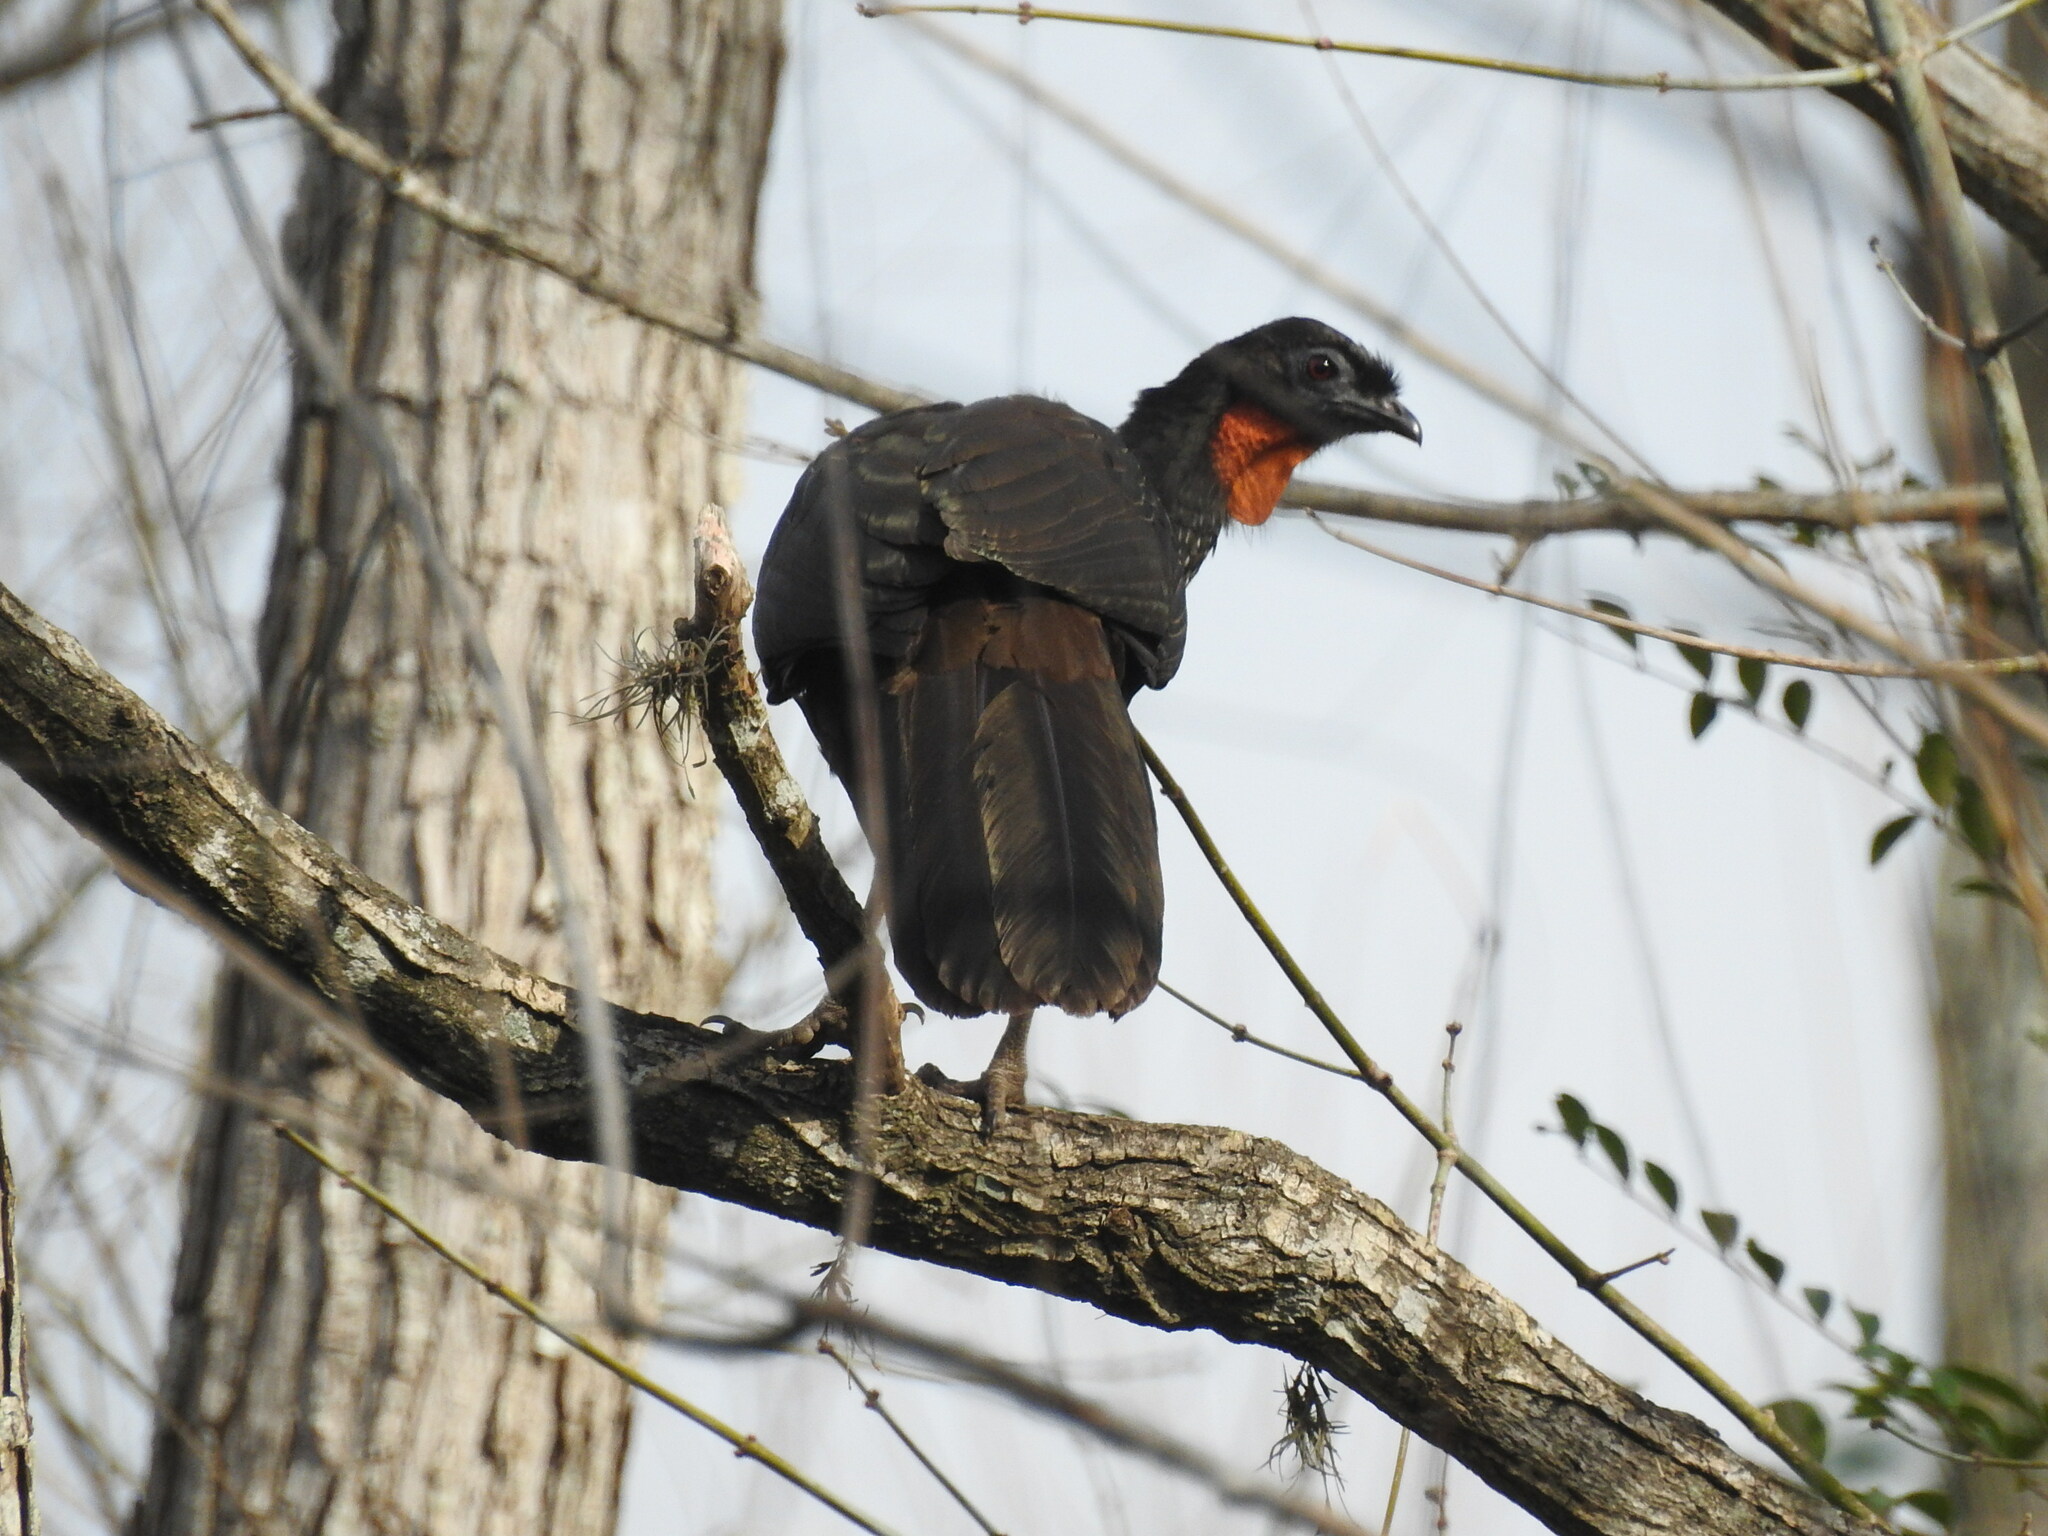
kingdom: Animalia
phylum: Chordata
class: Aves
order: Galliformes
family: Cracidae
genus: Penelope
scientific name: Penelope obscura
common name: Dusky-legged guan
